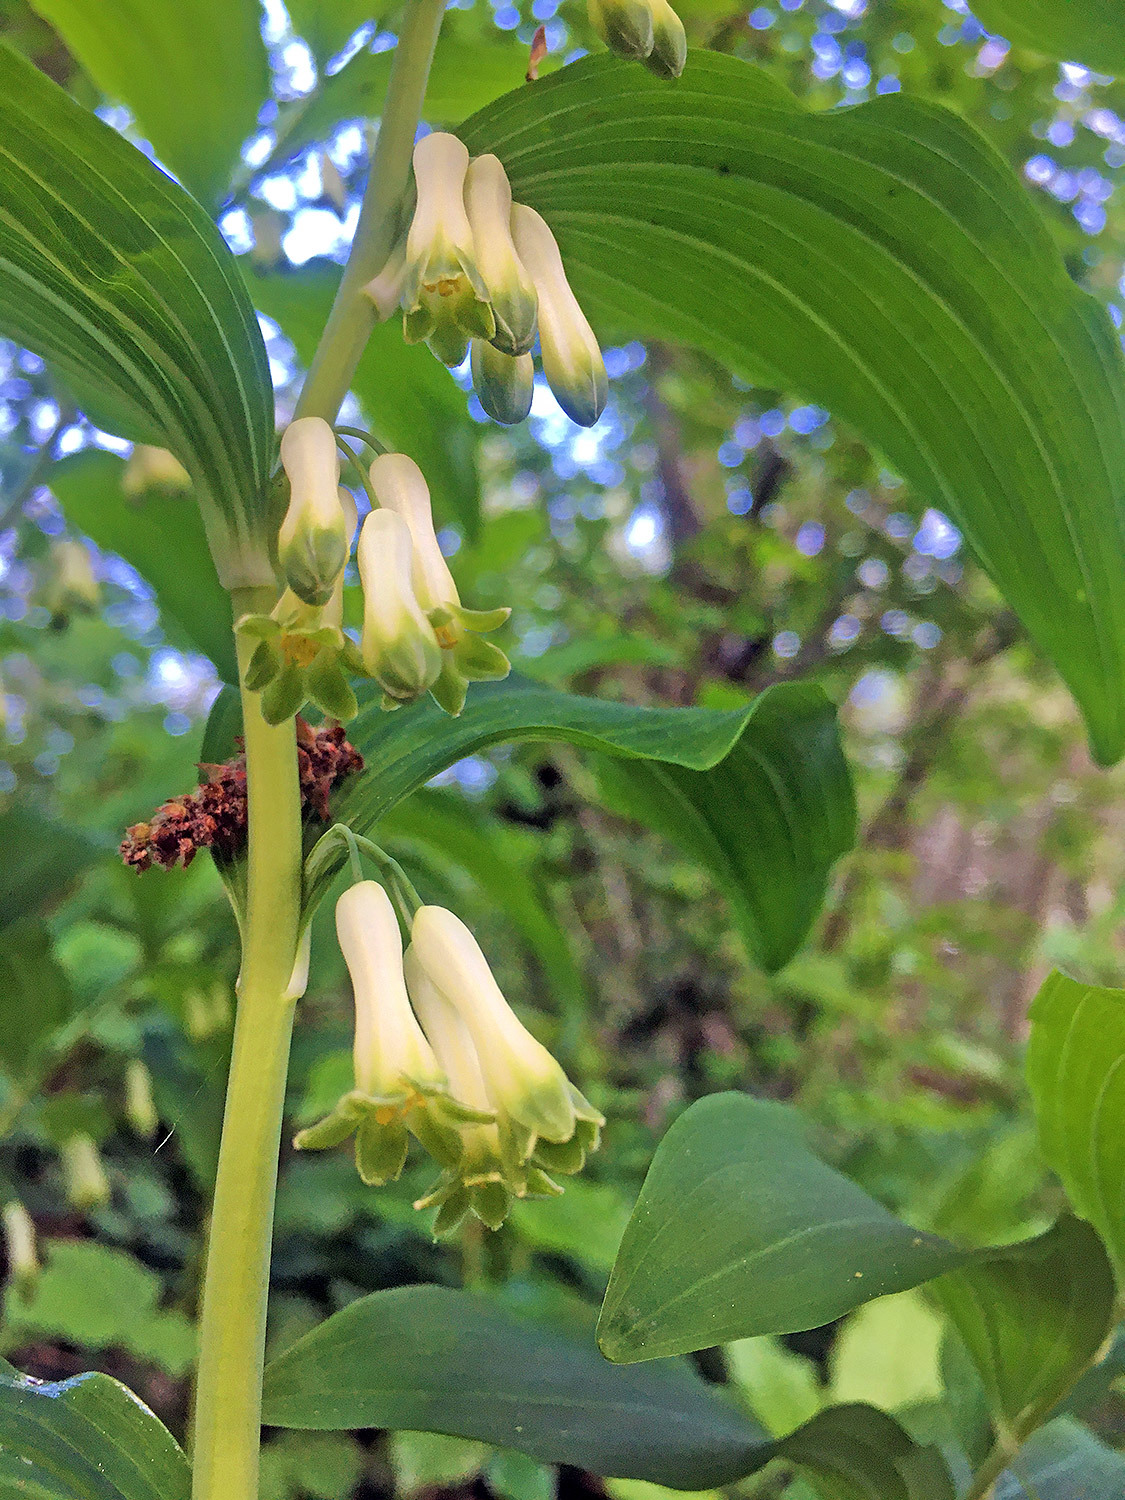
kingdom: Plantae
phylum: Tracheophyta
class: Liliopsida
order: Asparagales
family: Asparagaceae
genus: Polygonatum
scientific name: Polygonatum multiflorum
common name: Solomon's-seal
